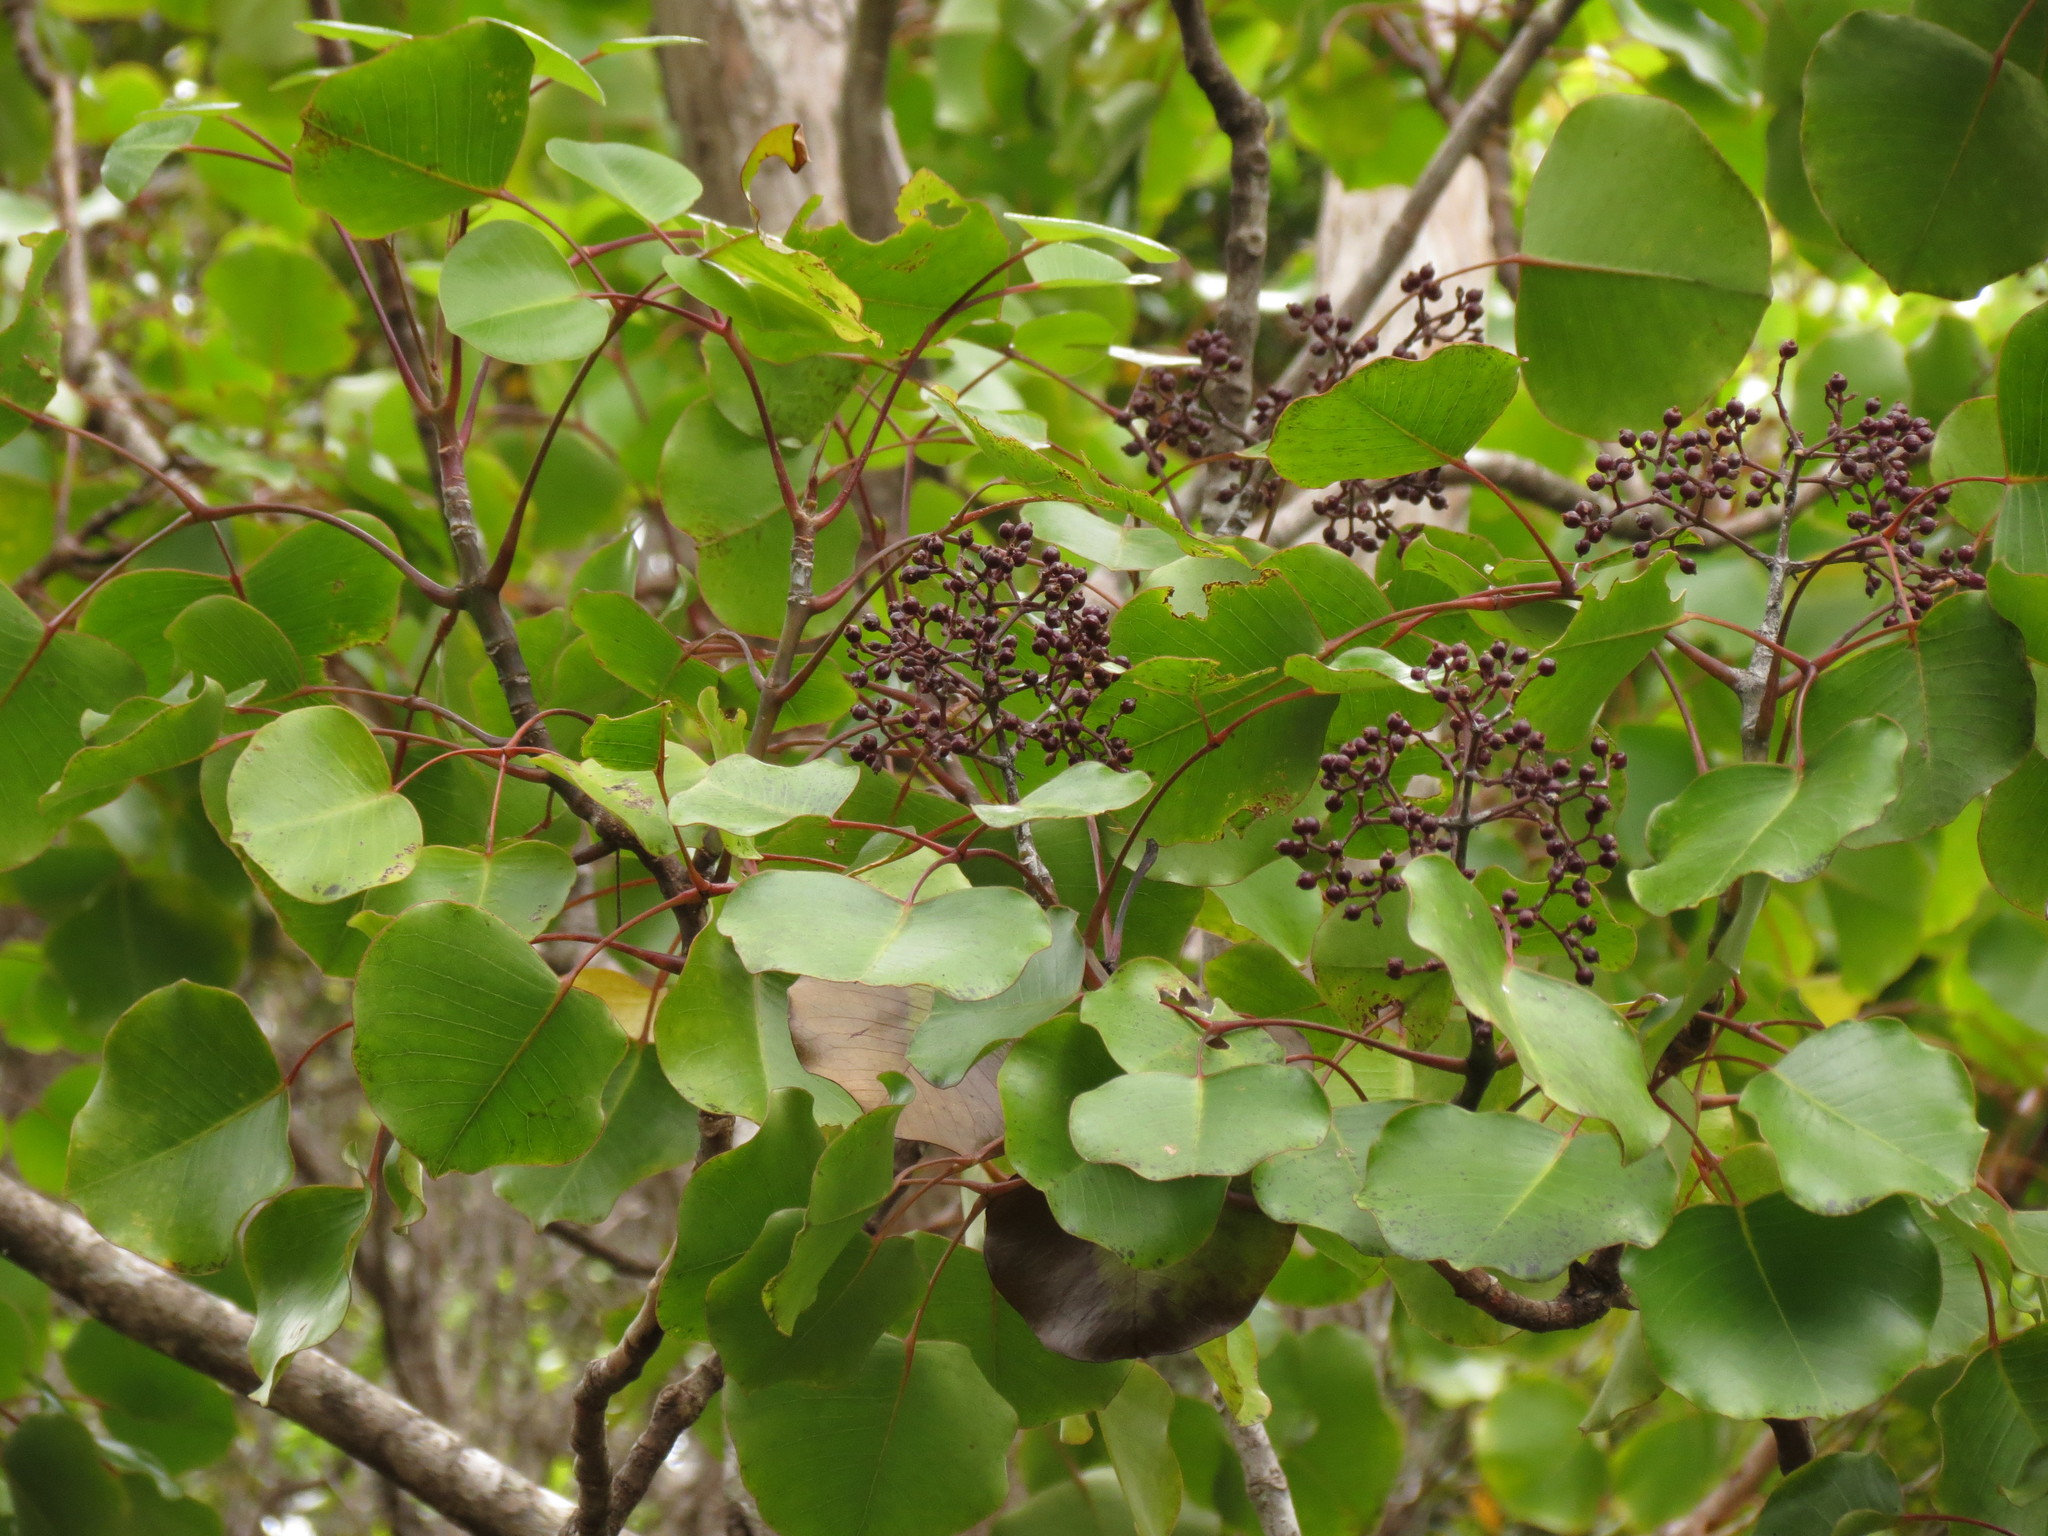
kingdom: Plantae
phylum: Tracheophyta
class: Magnoliopsida
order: Apiales
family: Araliaceae
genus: Cheirodendron
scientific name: Cheirodendron platyphyllum
